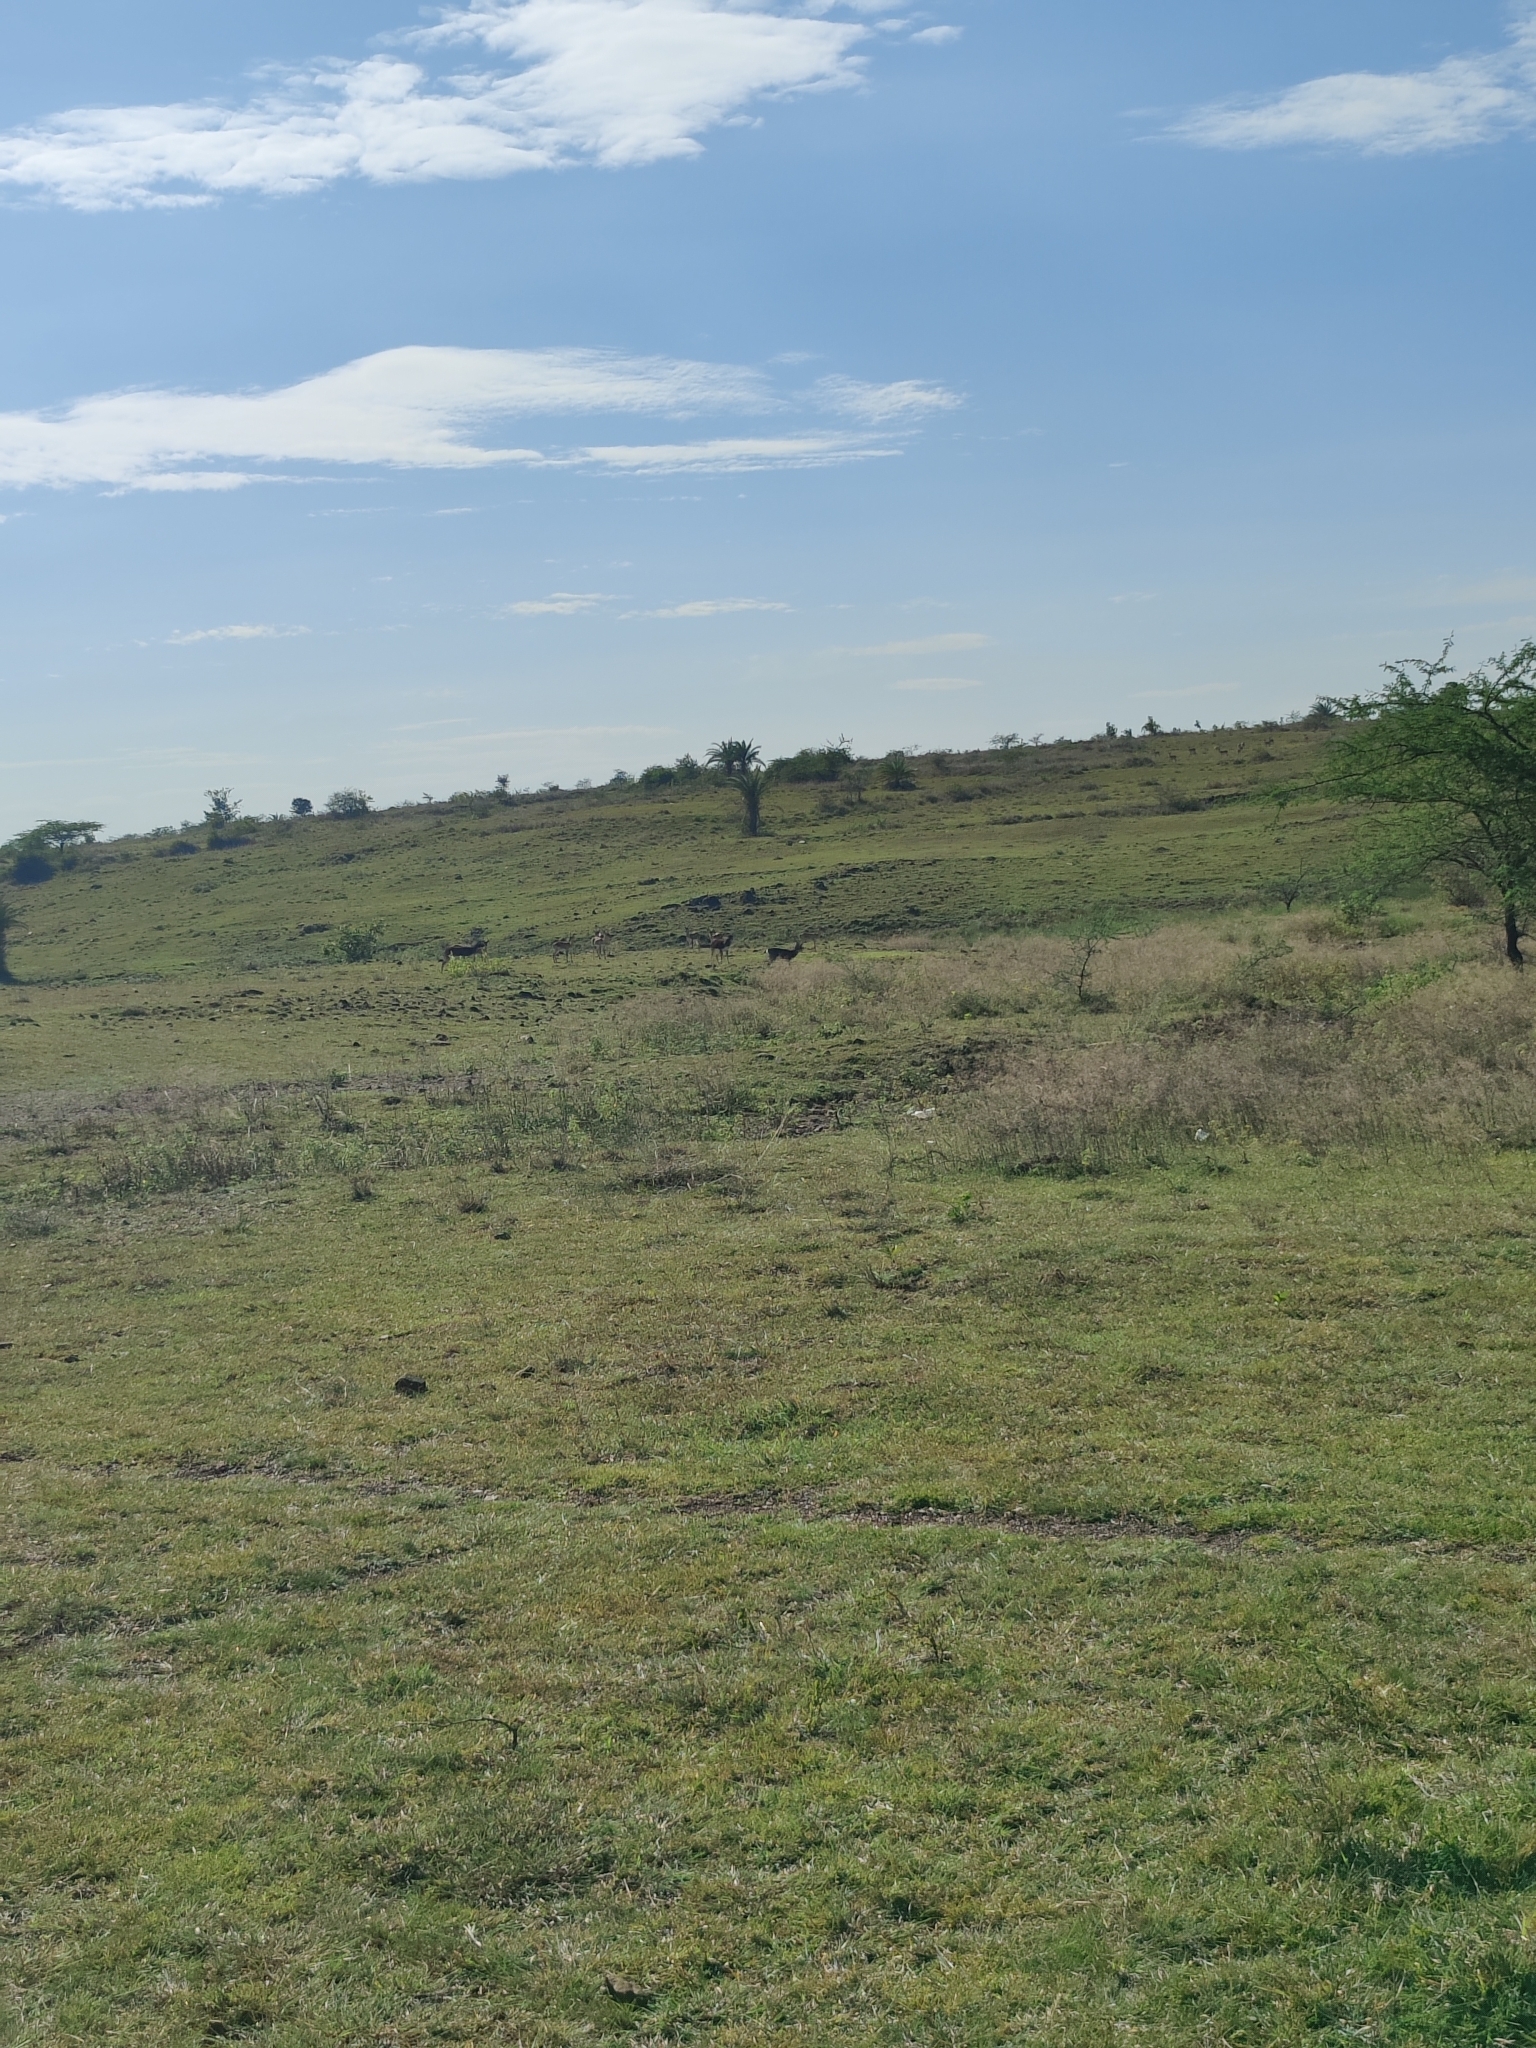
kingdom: Animalia
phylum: Chordata
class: Mammalia
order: Artiodactyla
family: Bovidae
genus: Antilope
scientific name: Antilope cervicapra
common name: Blackbuck
